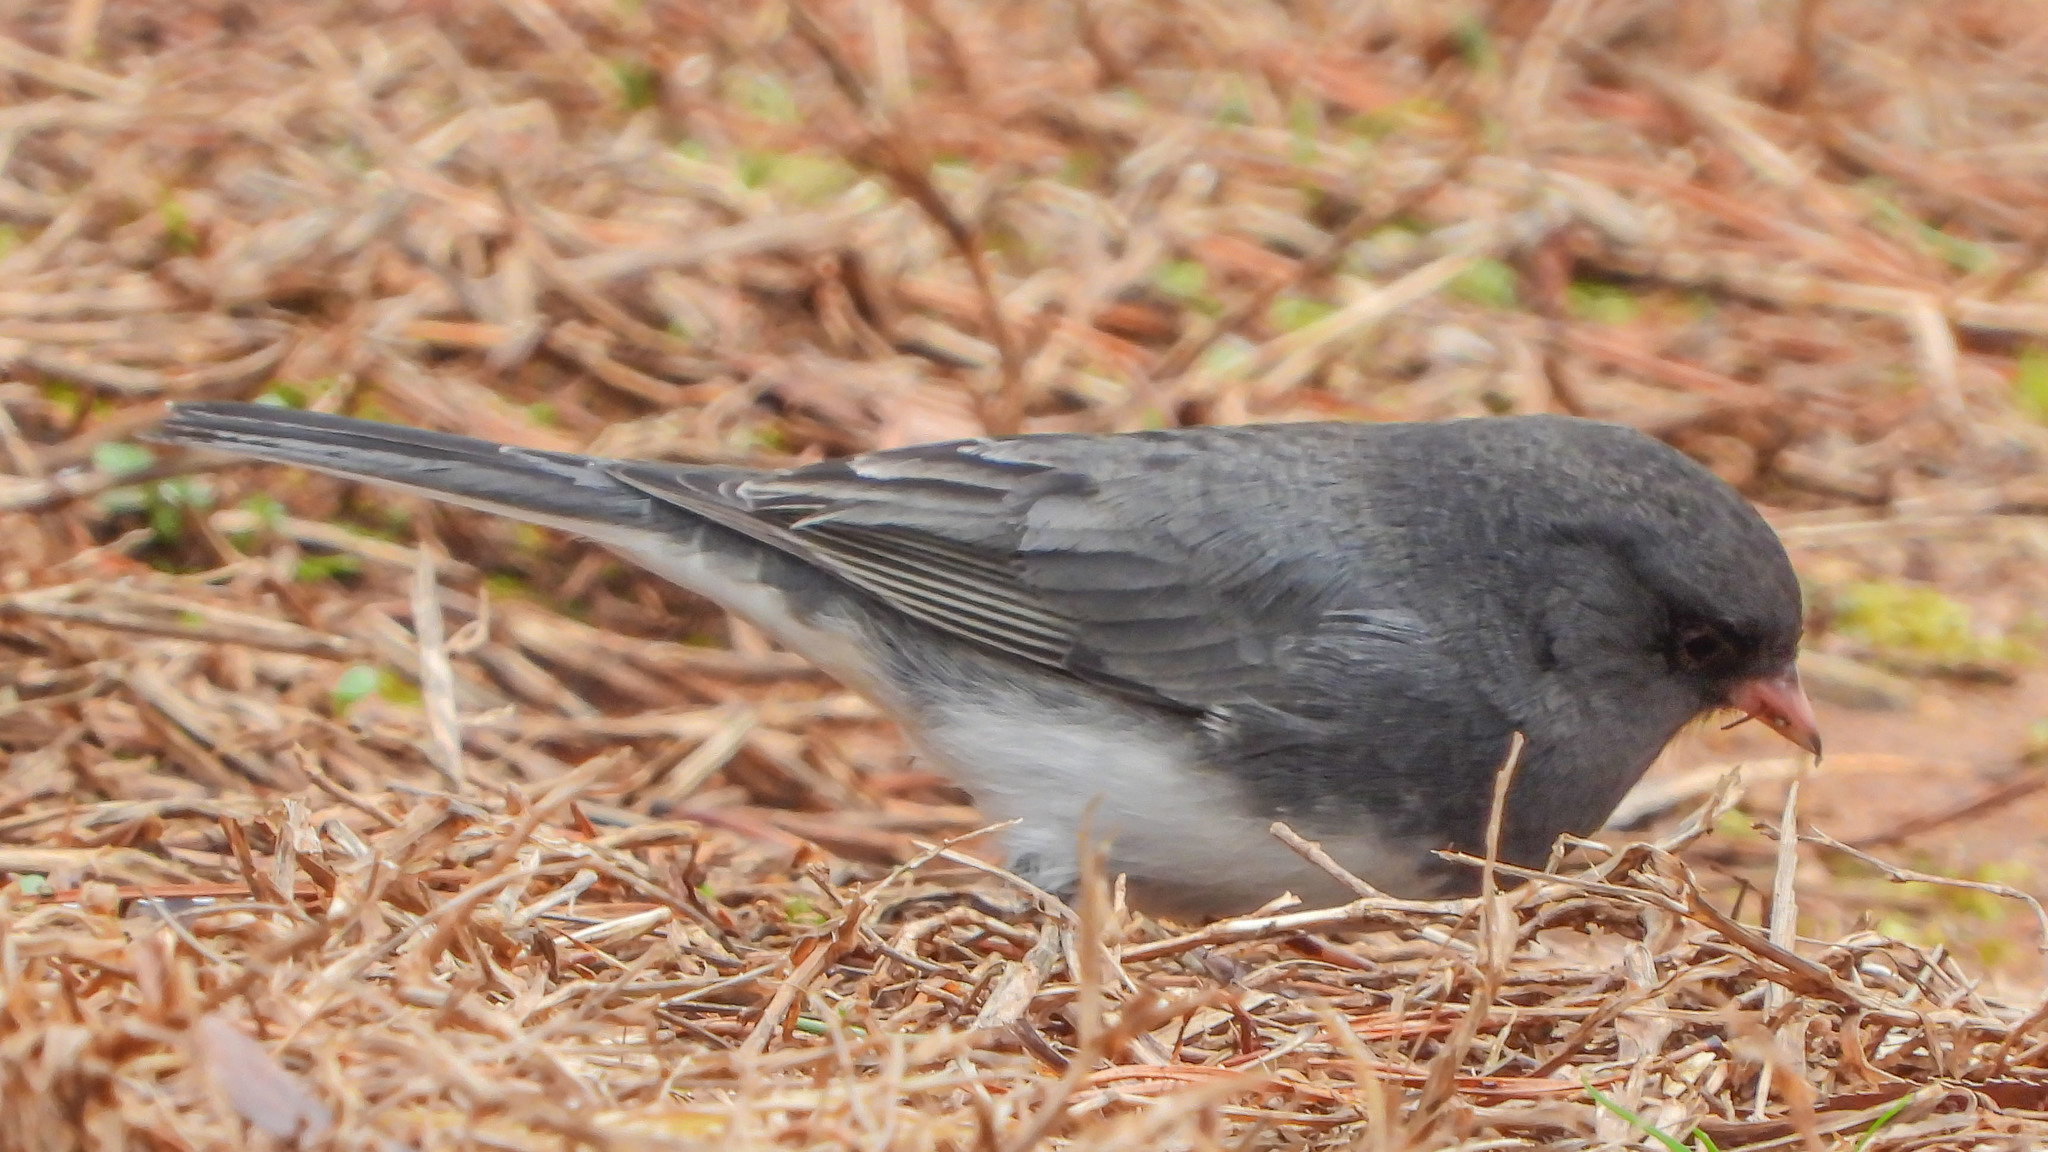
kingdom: Animalia
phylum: Chordata
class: Aves
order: Passeriformes
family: Passerellidae
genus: Junco
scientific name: Junco hyemalis
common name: Dark-eyed junco
